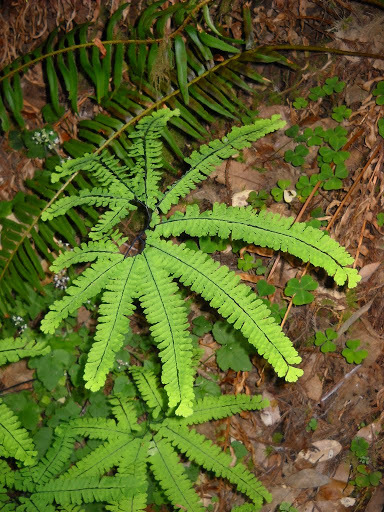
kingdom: Plantae
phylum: Tracheophyta
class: Polypodiopsida
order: Polypodiales
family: Pteridaceae
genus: Adiantum
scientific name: Adiantum aleuticum
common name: Aleutian maidenhair fern
